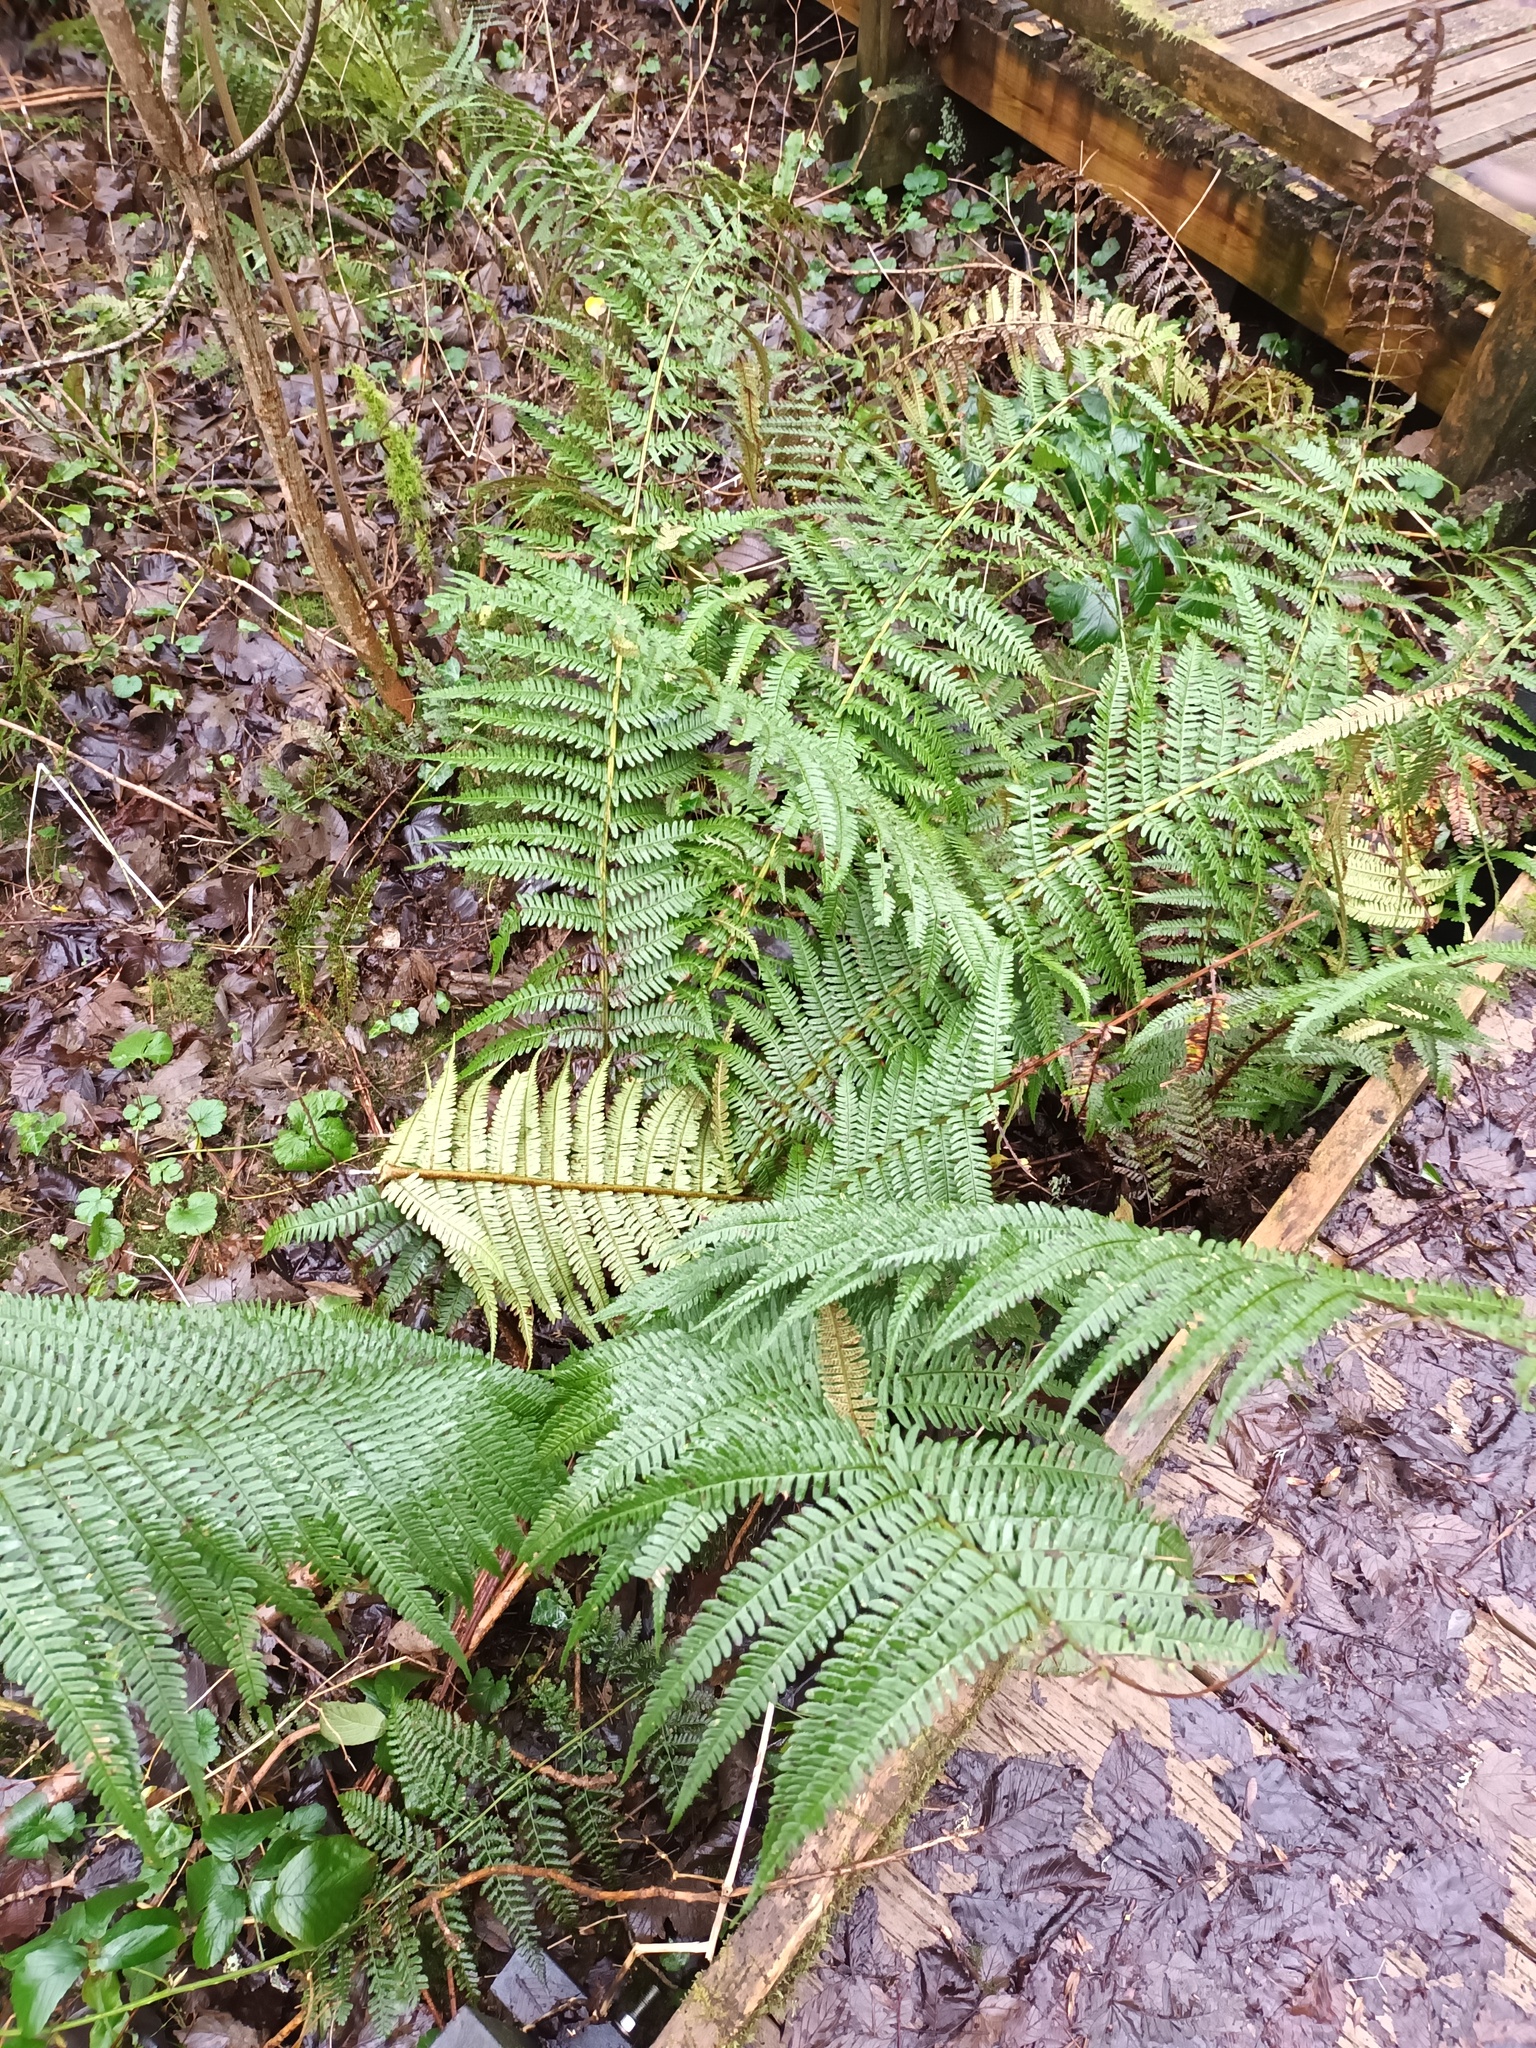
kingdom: Plantae
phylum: Tracheophyta
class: Polypodiopsida
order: Polypodiales
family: Dryopteridaceae
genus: Dryopteris
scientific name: Dryopteris affinis
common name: Scaly male fern
